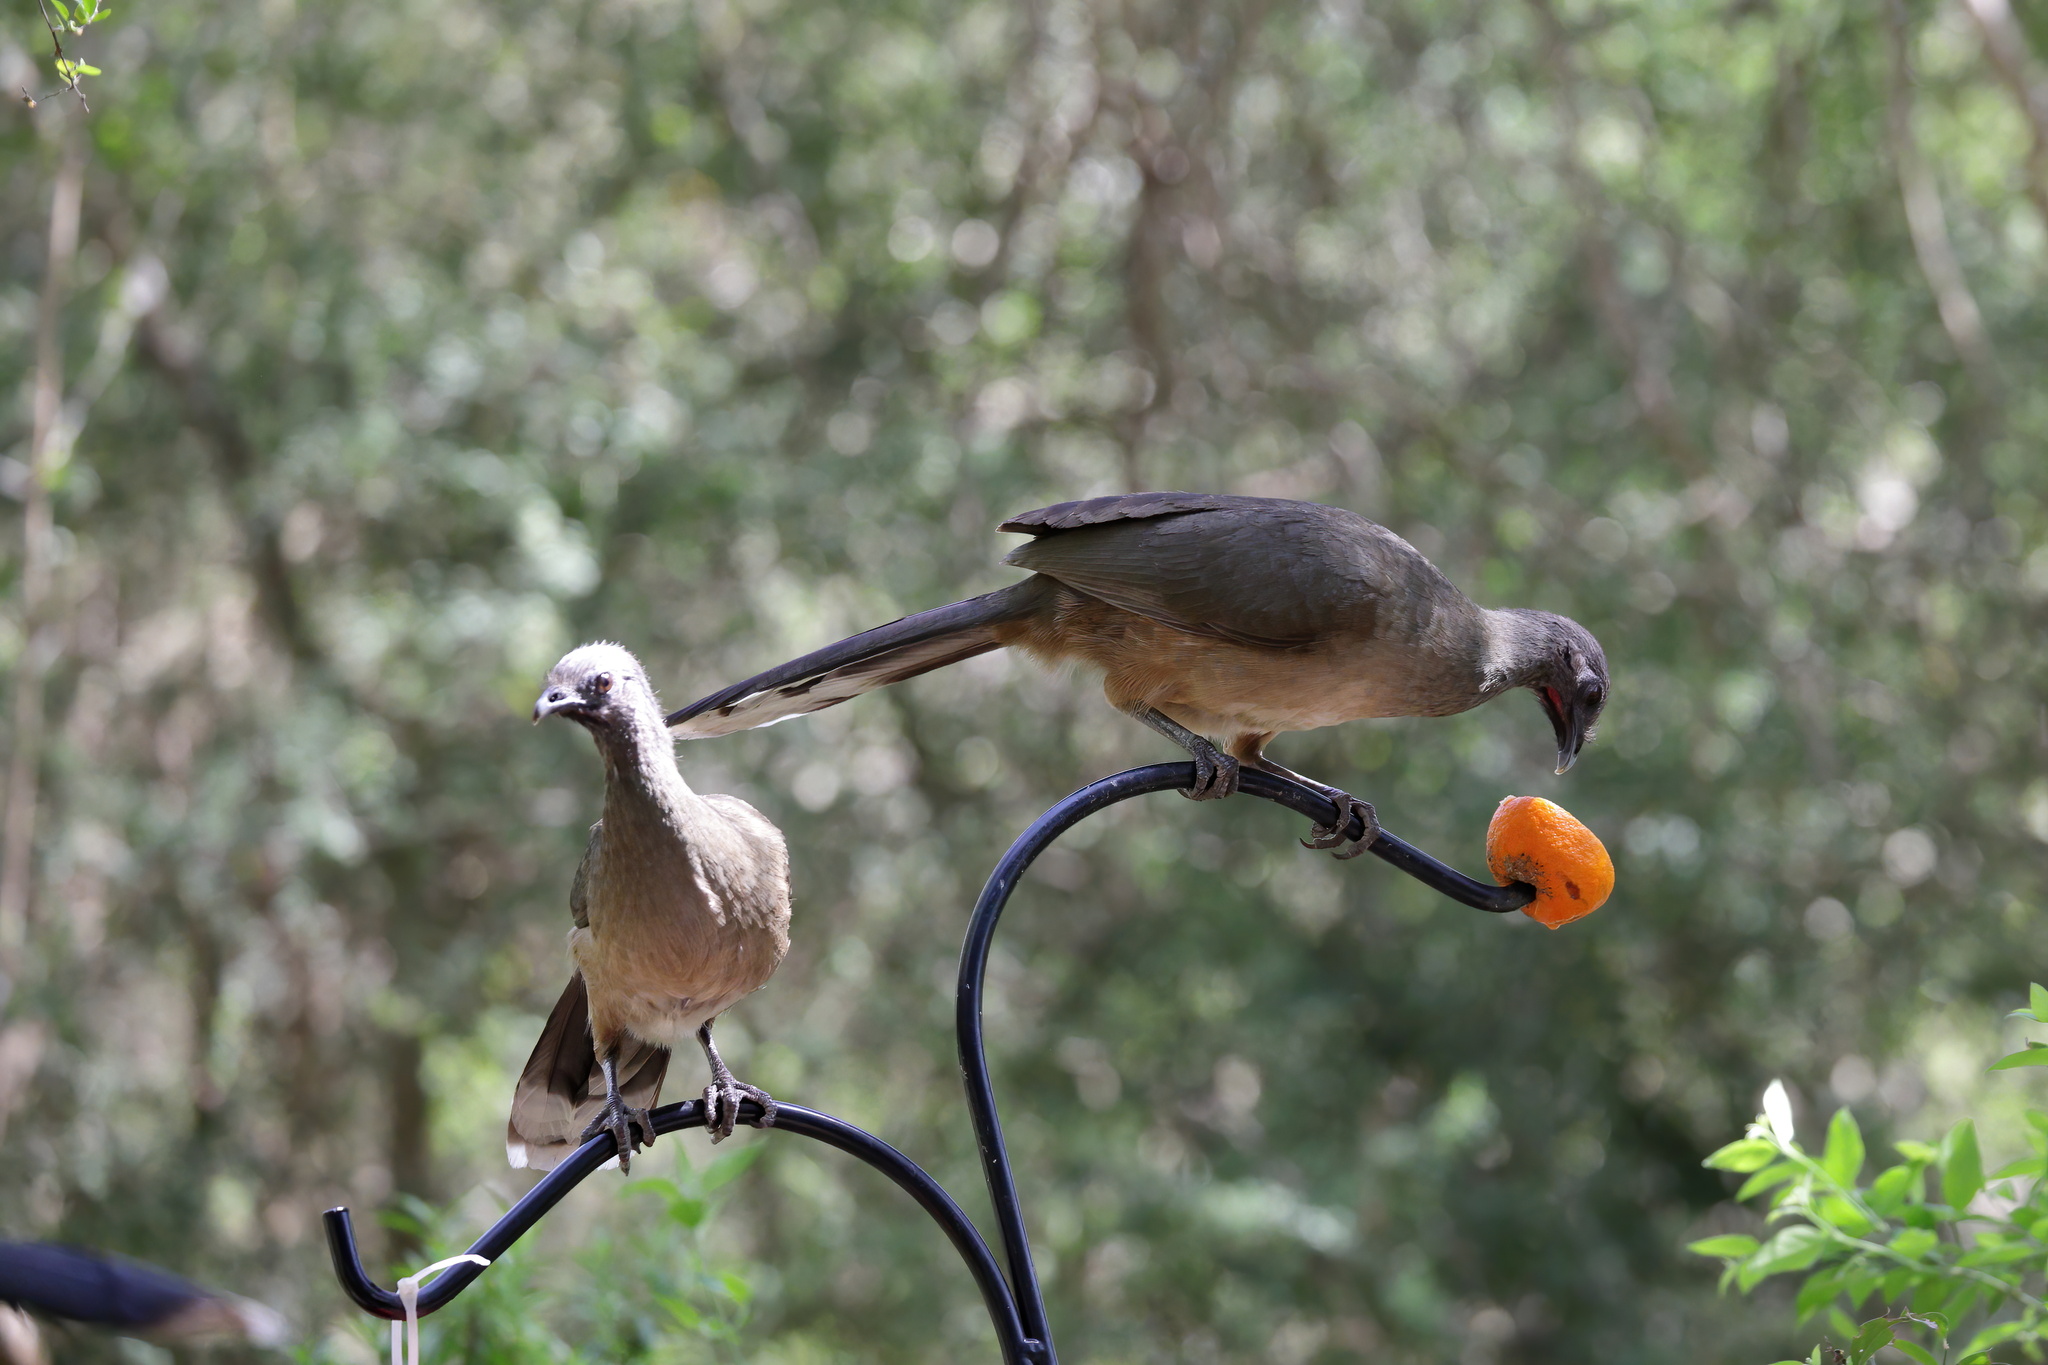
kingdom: Animalia
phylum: Chordata
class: Aves
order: Galliformes
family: Cracidae
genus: Ortalis
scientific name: Ortalis vetula
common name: Plain chachalaca
